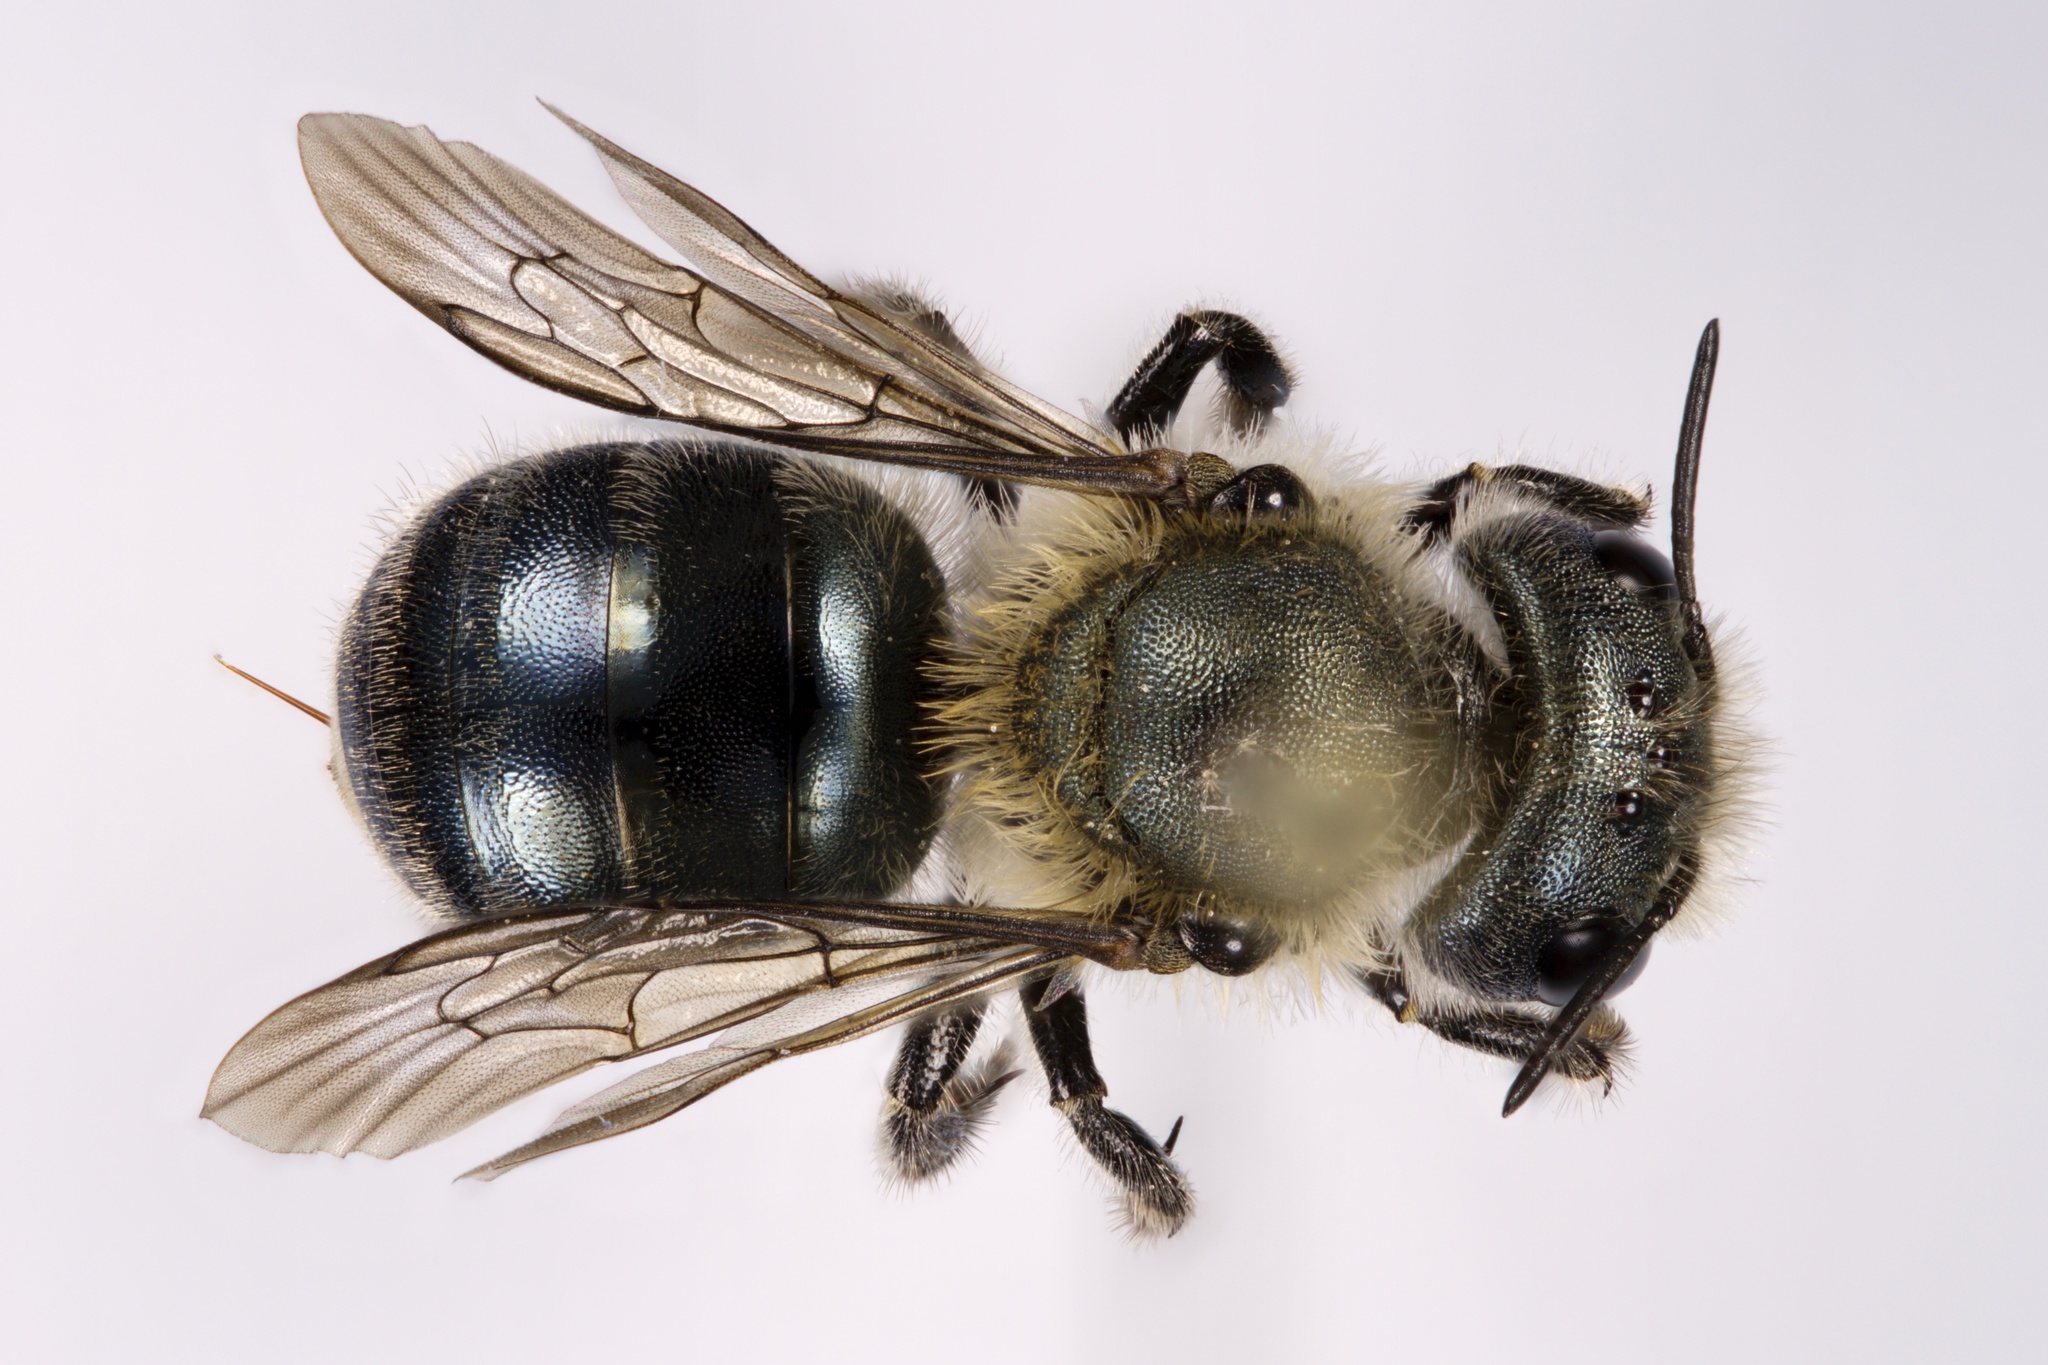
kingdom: Animalia
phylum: Arthropoda
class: Insecta
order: Hymenoptera
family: Megachilidae
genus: Osmia
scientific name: Osmia virga
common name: Twig mason bee
